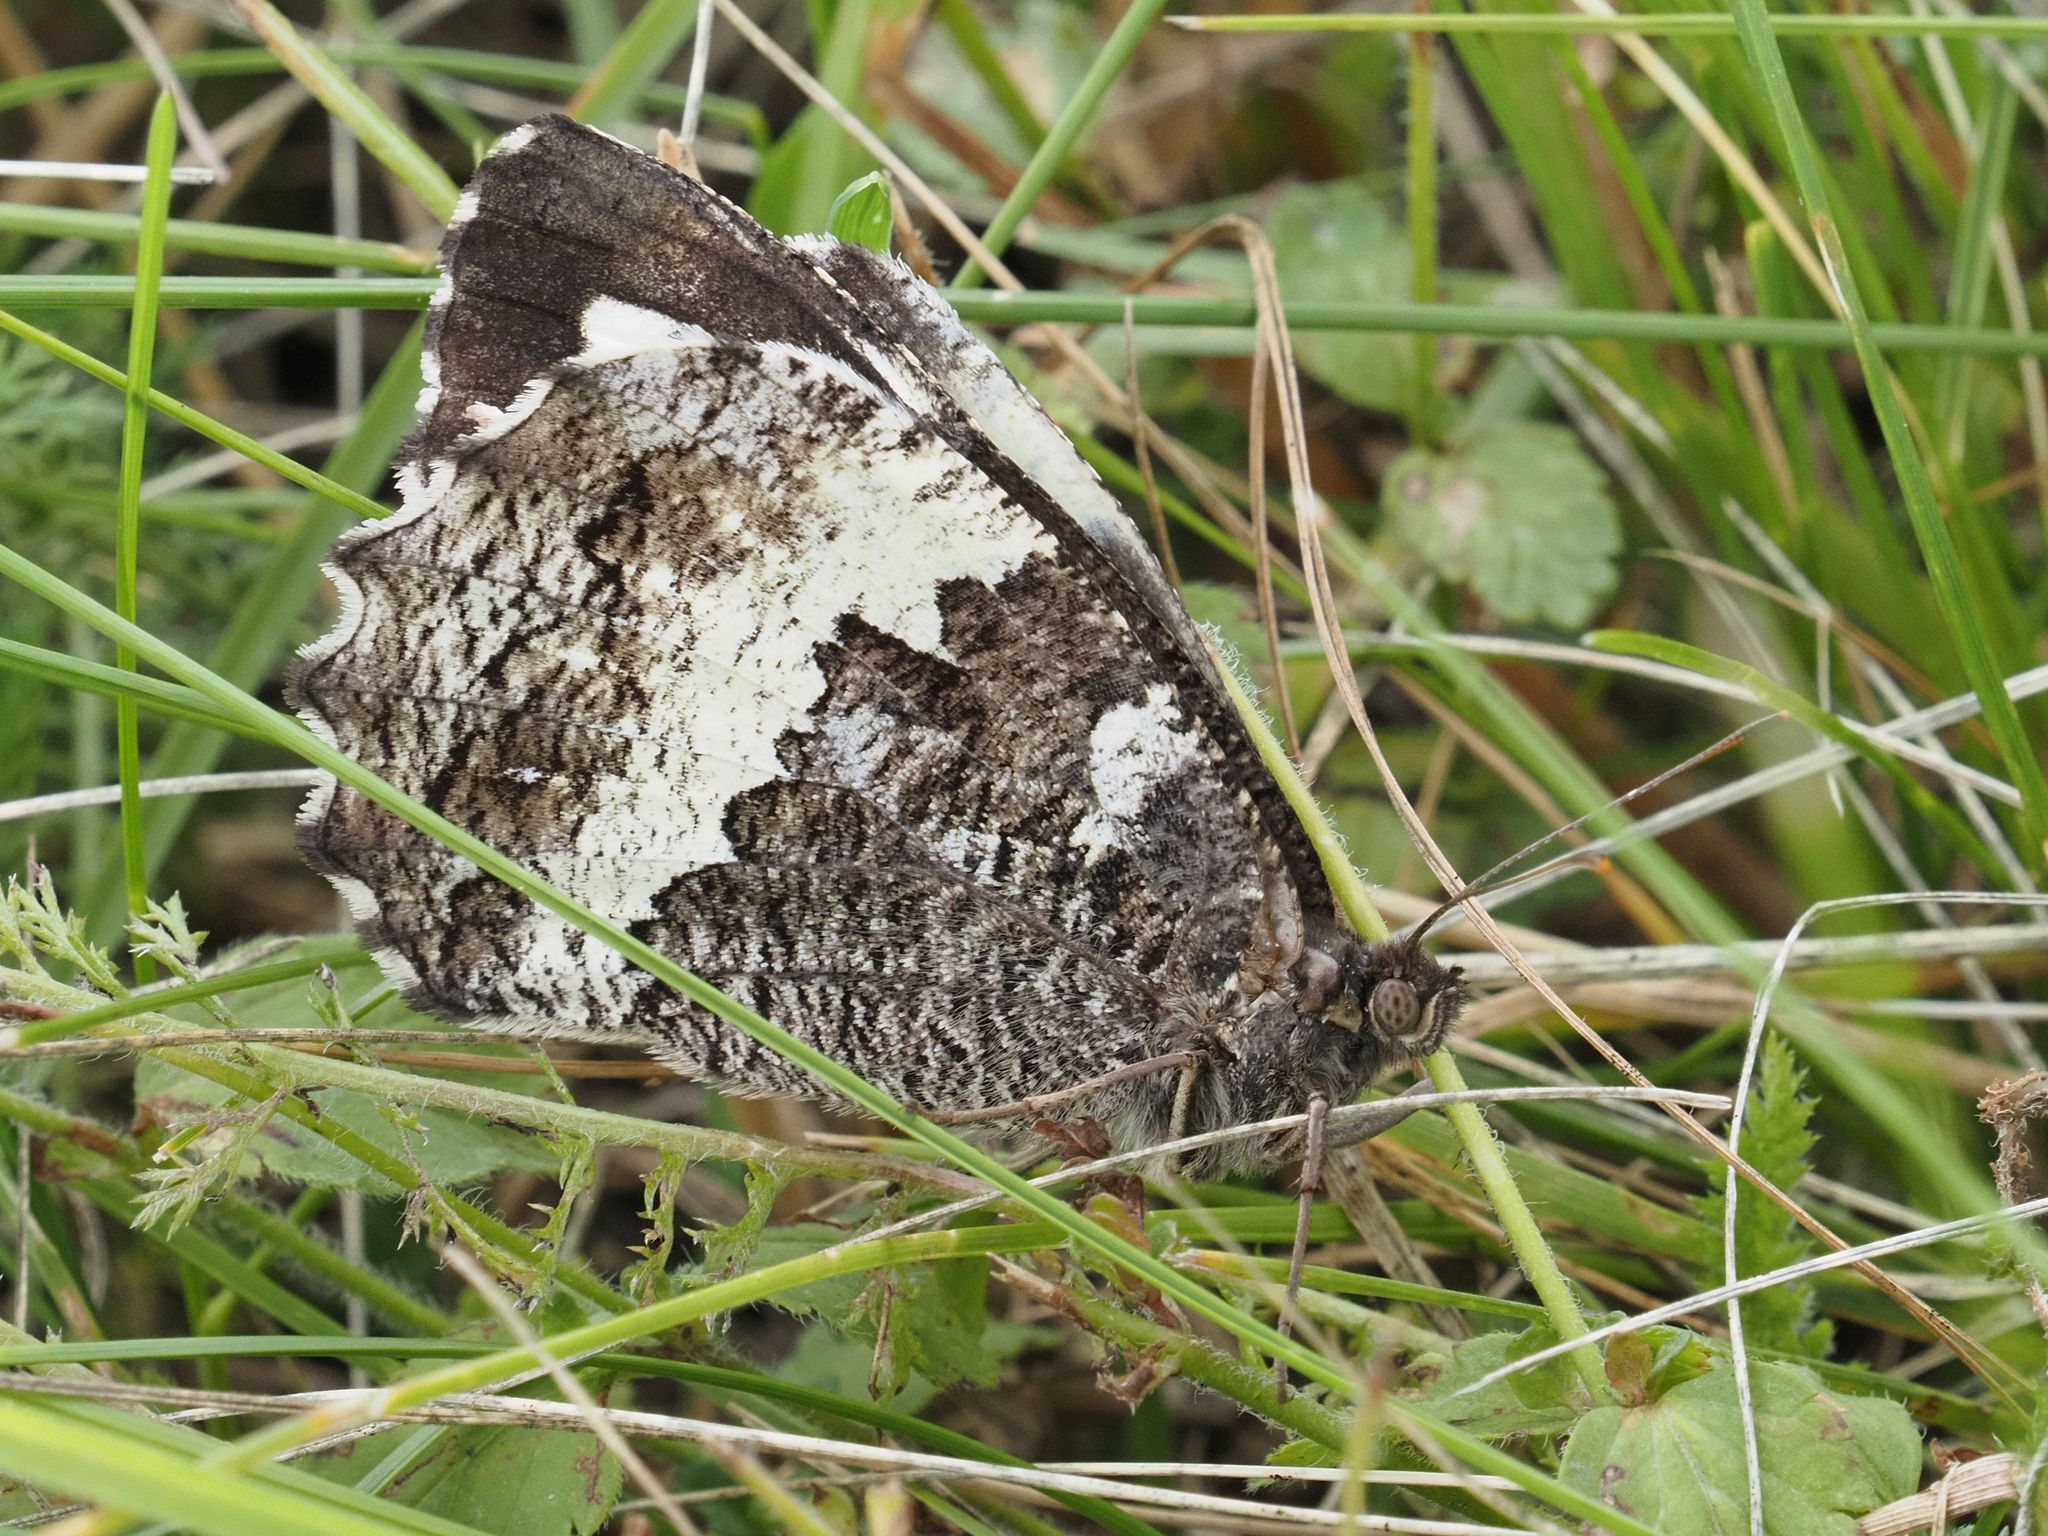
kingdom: Animalia
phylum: Arthropoda
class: Insecta
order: Lepidoptera
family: Lycaenidae
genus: Loweia
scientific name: Loweia tityrus
